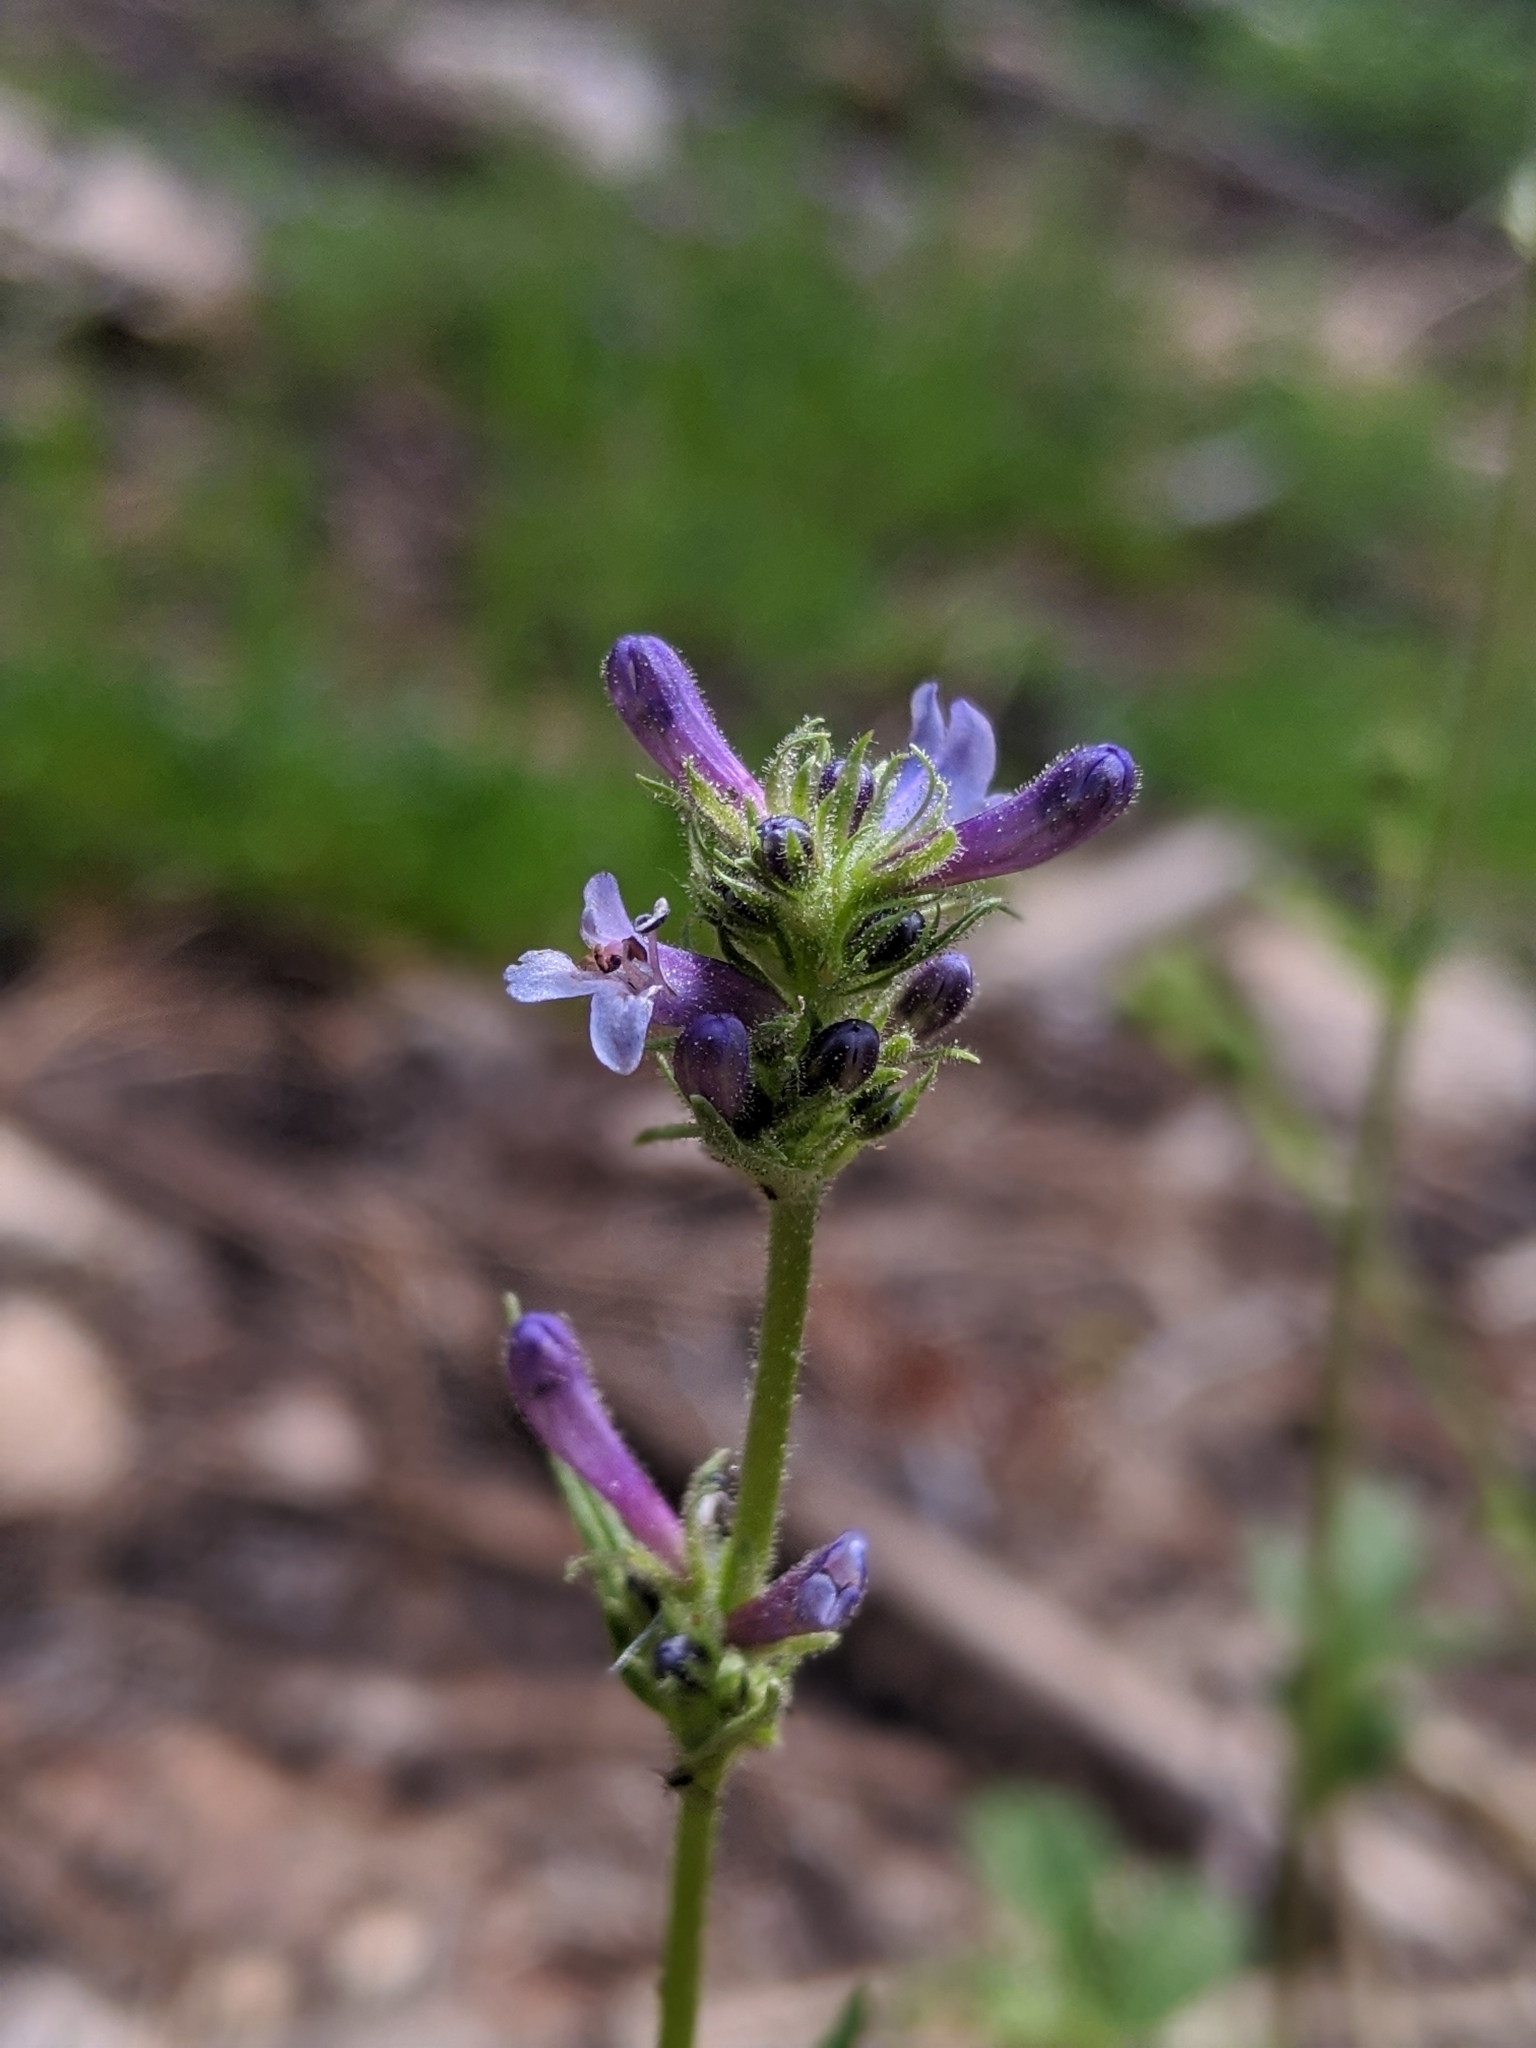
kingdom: Plantae
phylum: Tracheophyta
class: Magnoliopsida
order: Lamiales
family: Plantaginaceae
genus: Penstemon
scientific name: Penstemon heterodoxus
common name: Sierran penstemon
